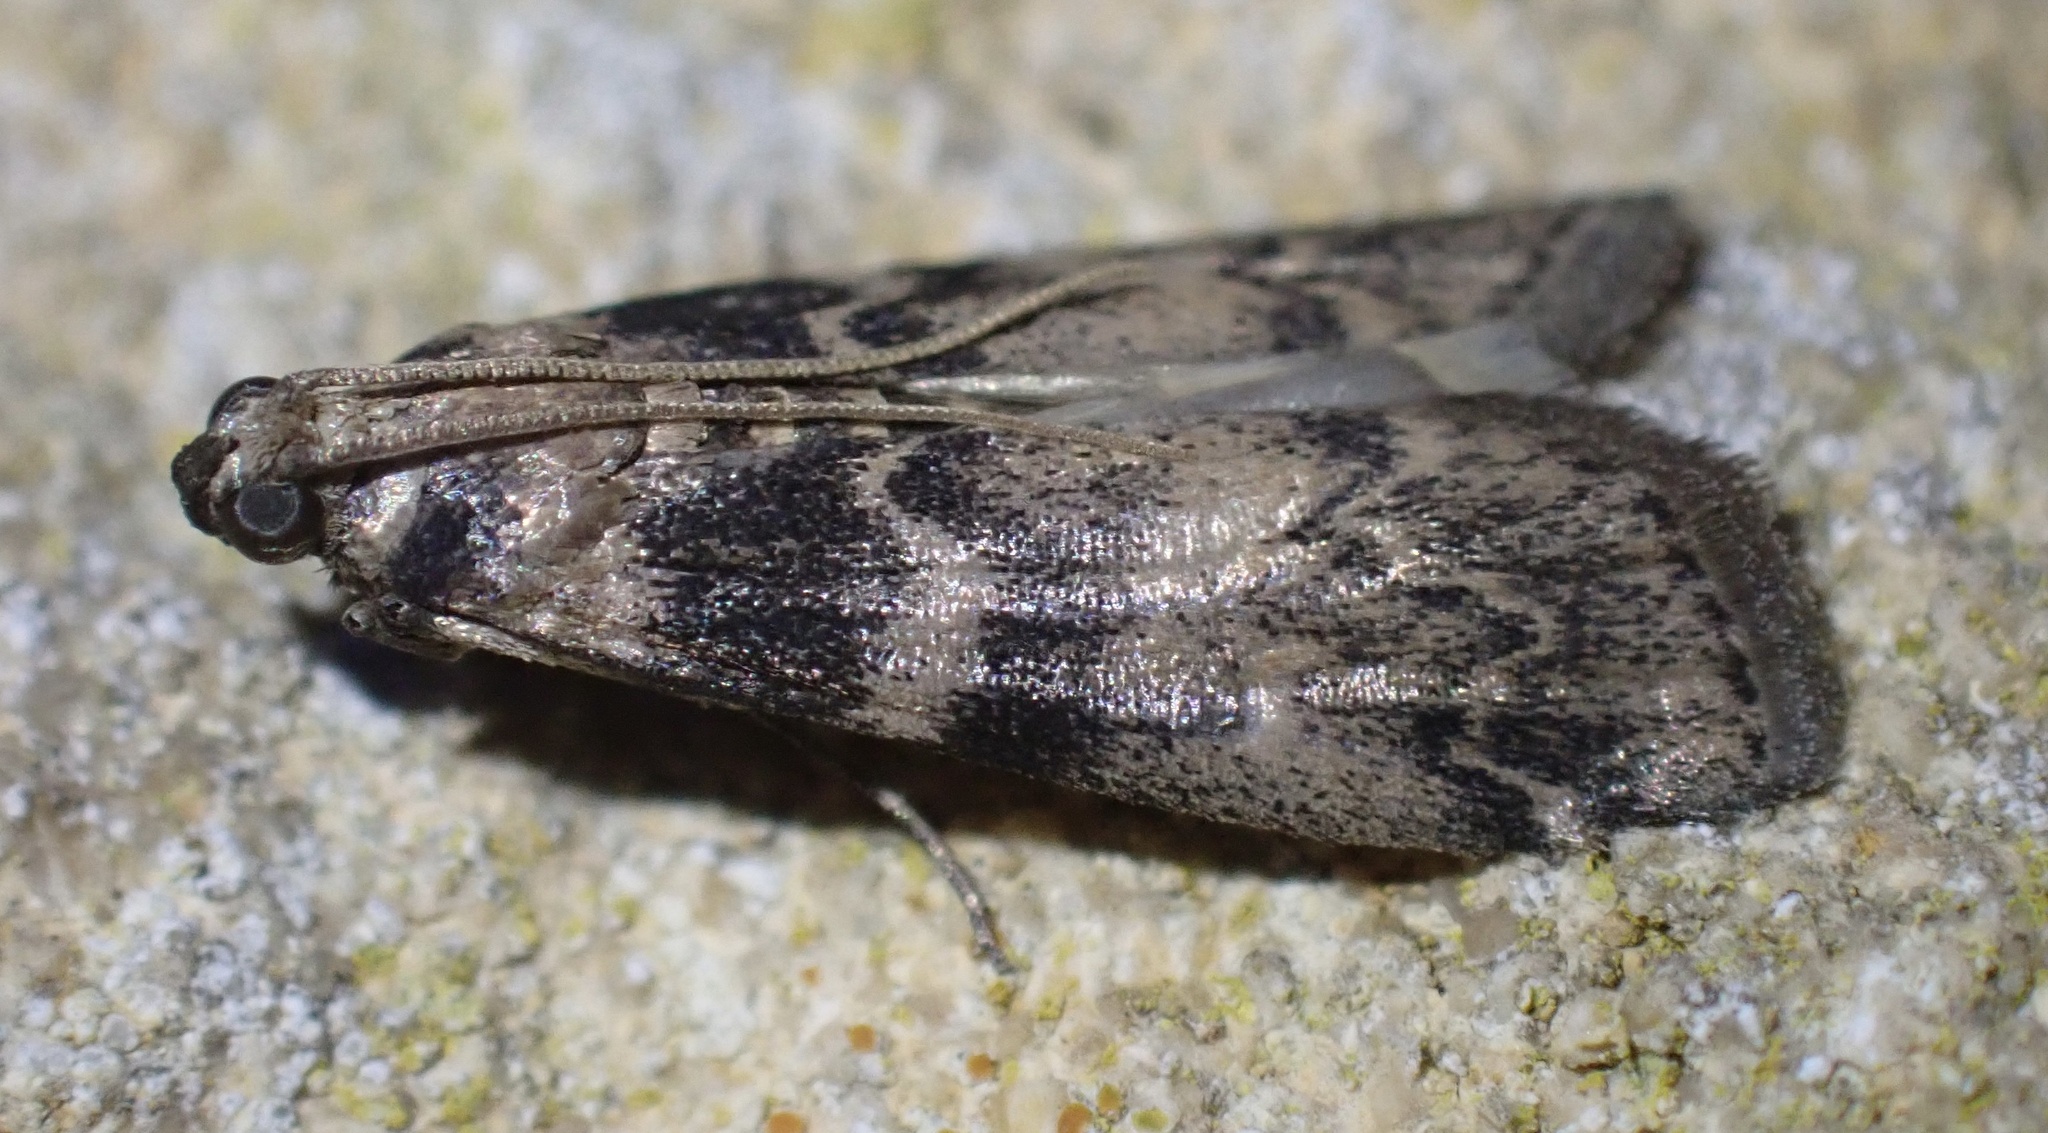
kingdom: Animalia
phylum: Arthropoda
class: Insecta
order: Lepidoptera
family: Pyralidae
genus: Euzophera
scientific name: Euzophera pinguis
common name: Ash-bark knot-horn
